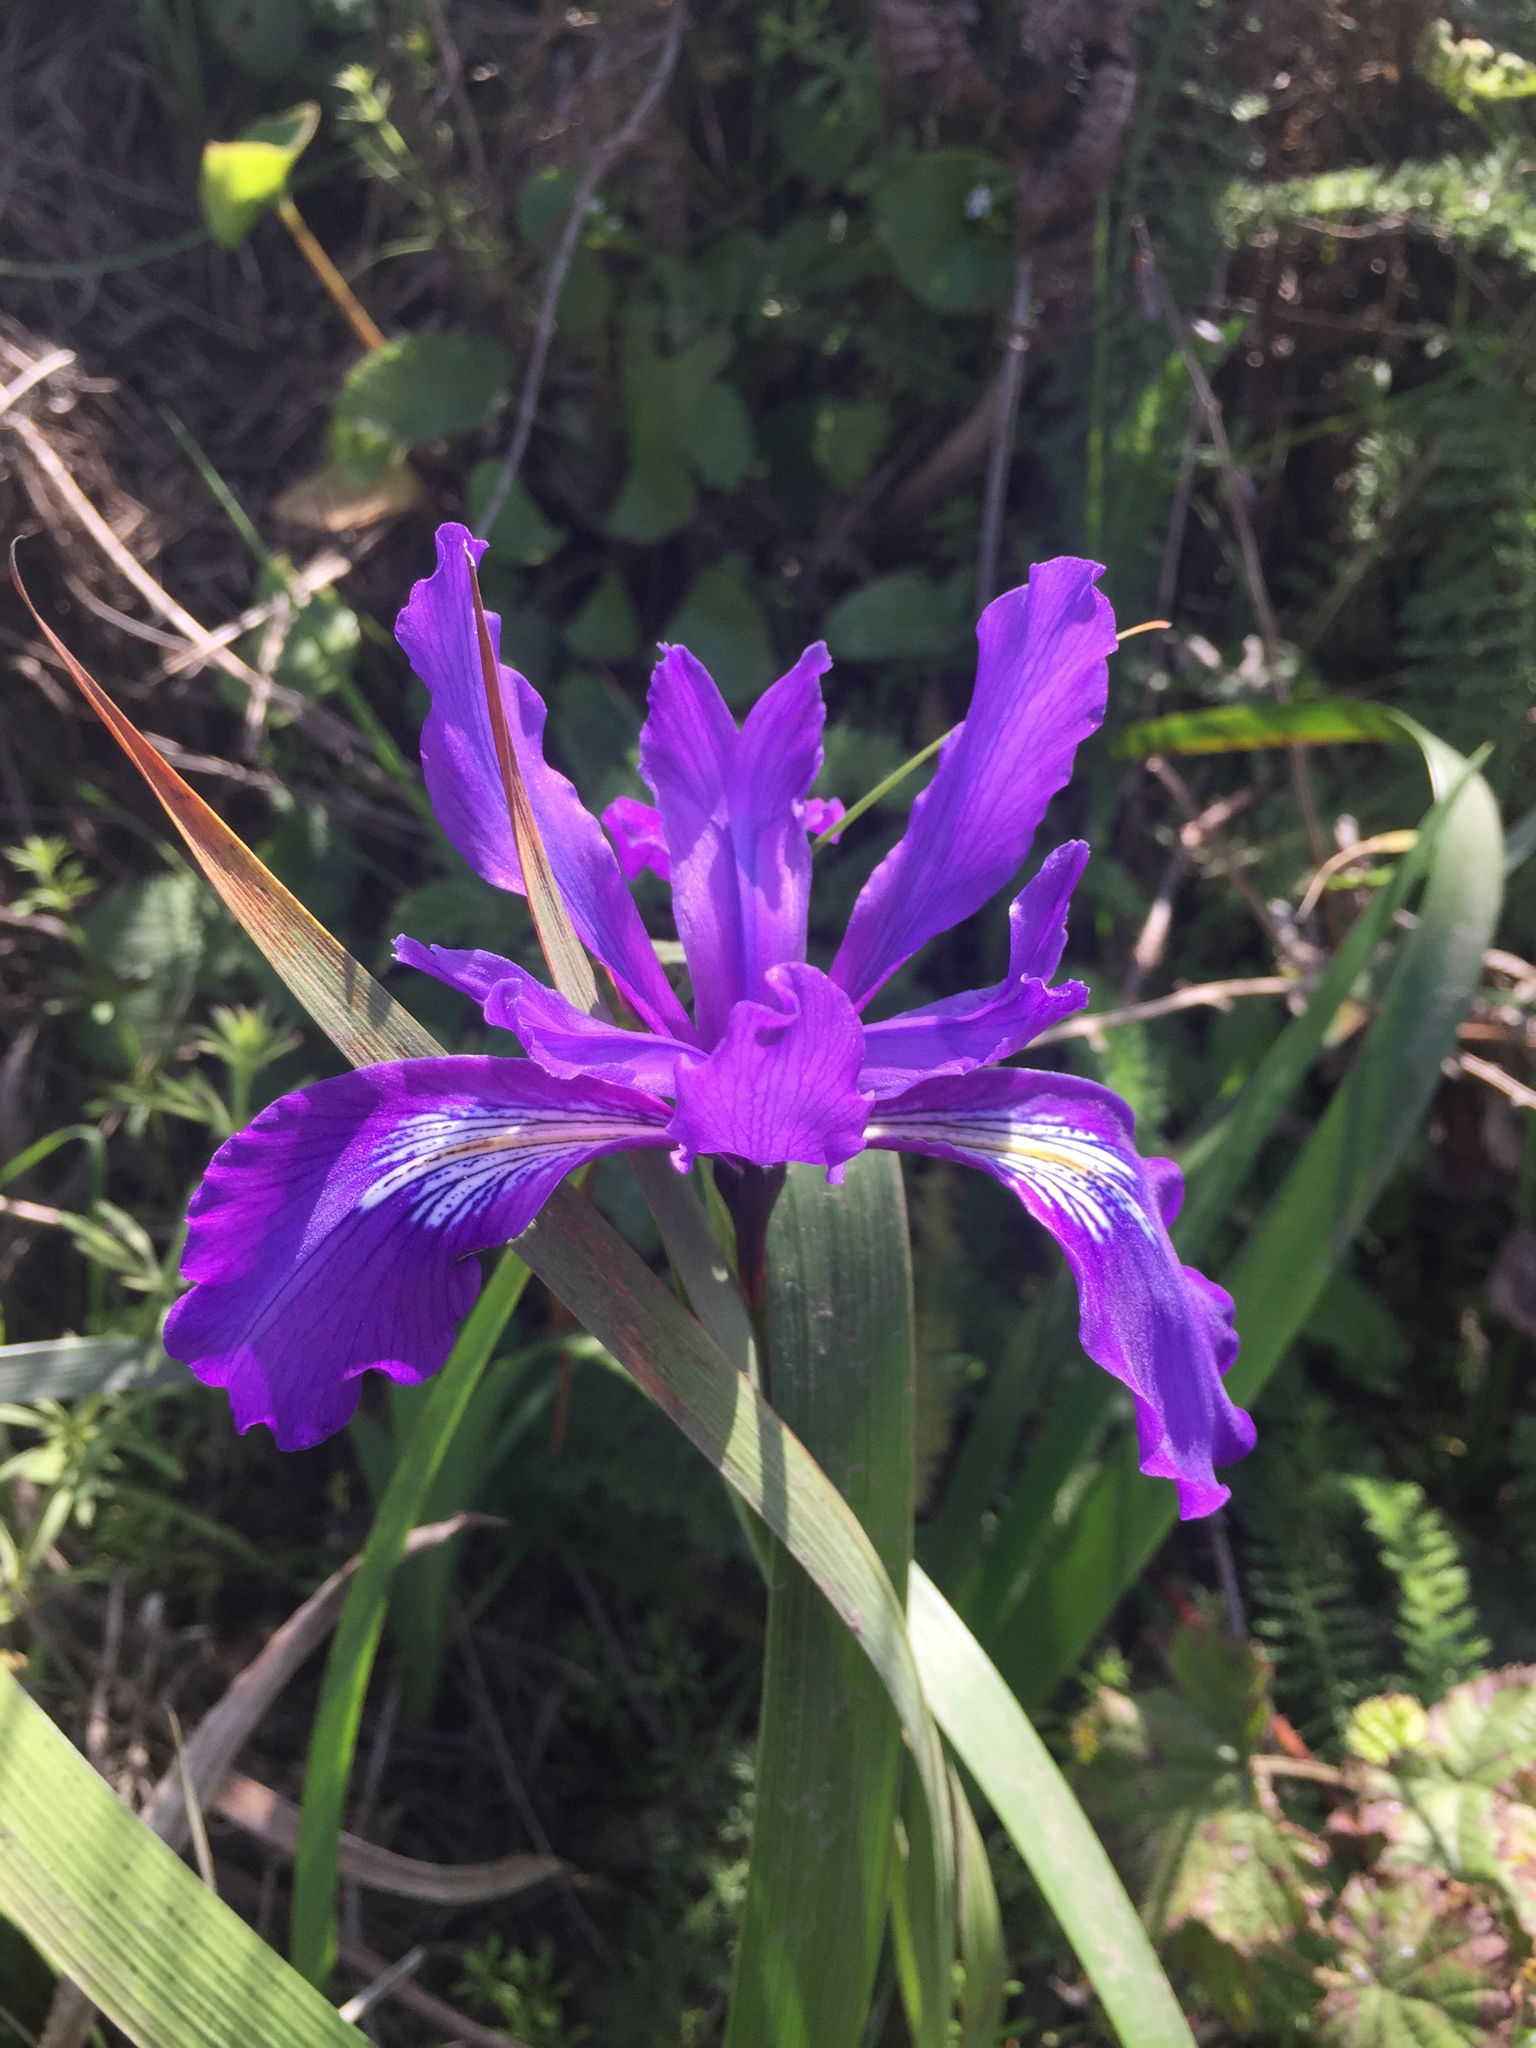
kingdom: Plantae
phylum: Tracheophyta
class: Liliopsida
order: Asparagales
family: Iridaceae
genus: Iris
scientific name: Iris douglasiana
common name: Marin iris
